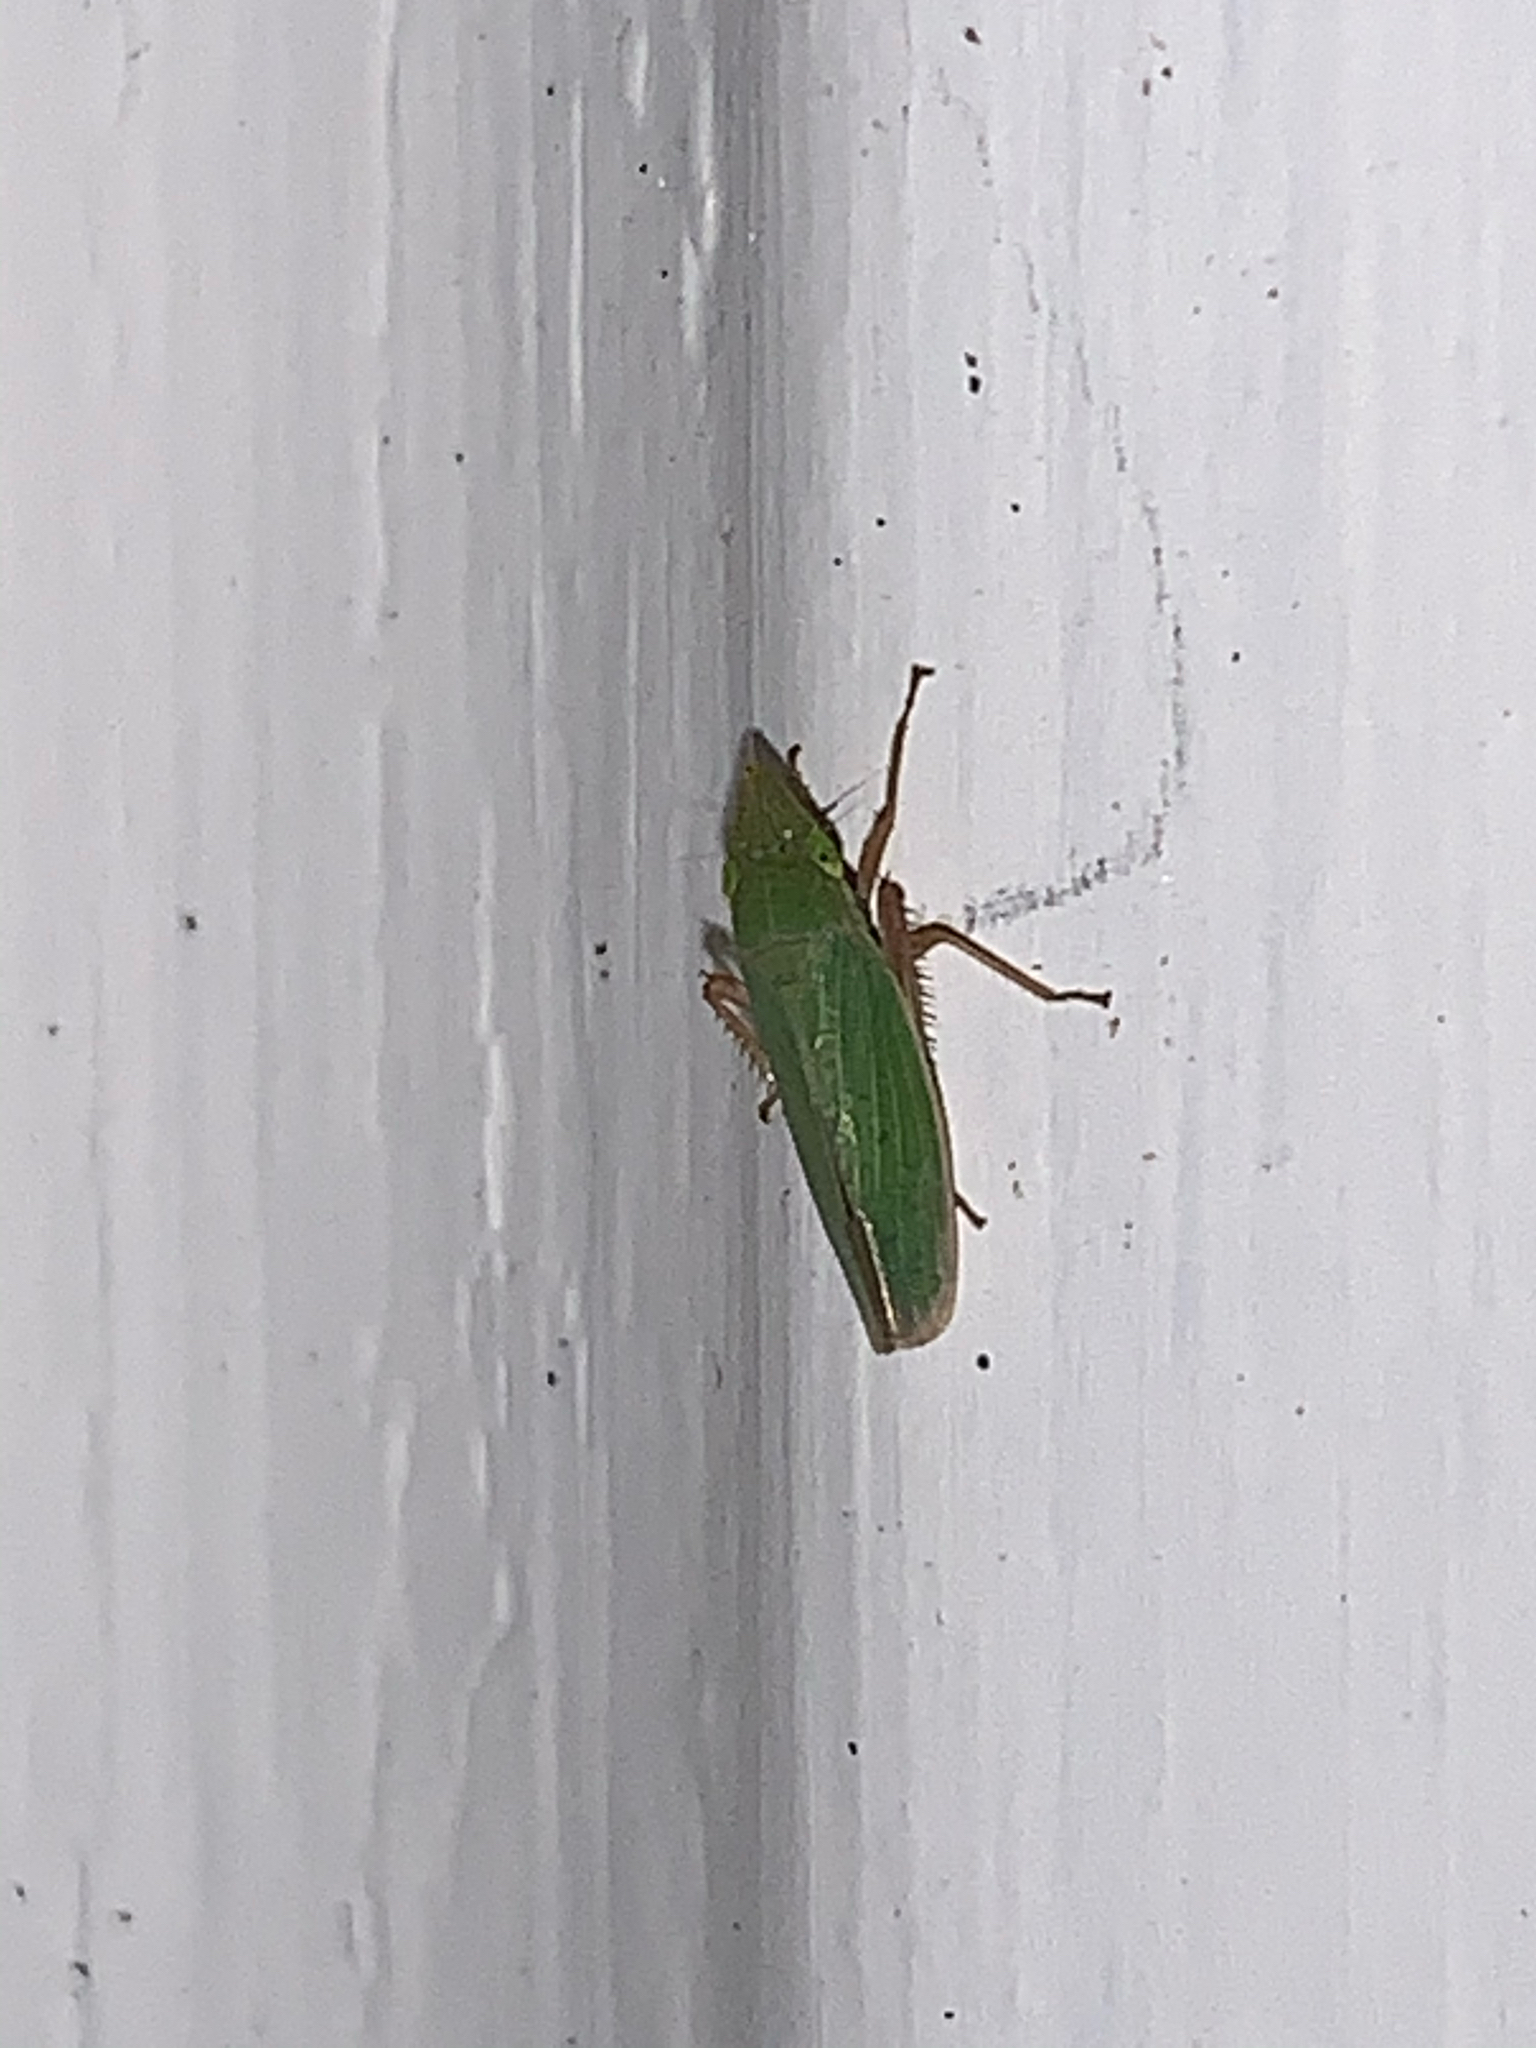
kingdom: Animalia
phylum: Arthropoda
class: Insecta
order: Hemiptera
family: Cicadellidae
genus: Draeculacephala
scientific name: Draeculacephala
